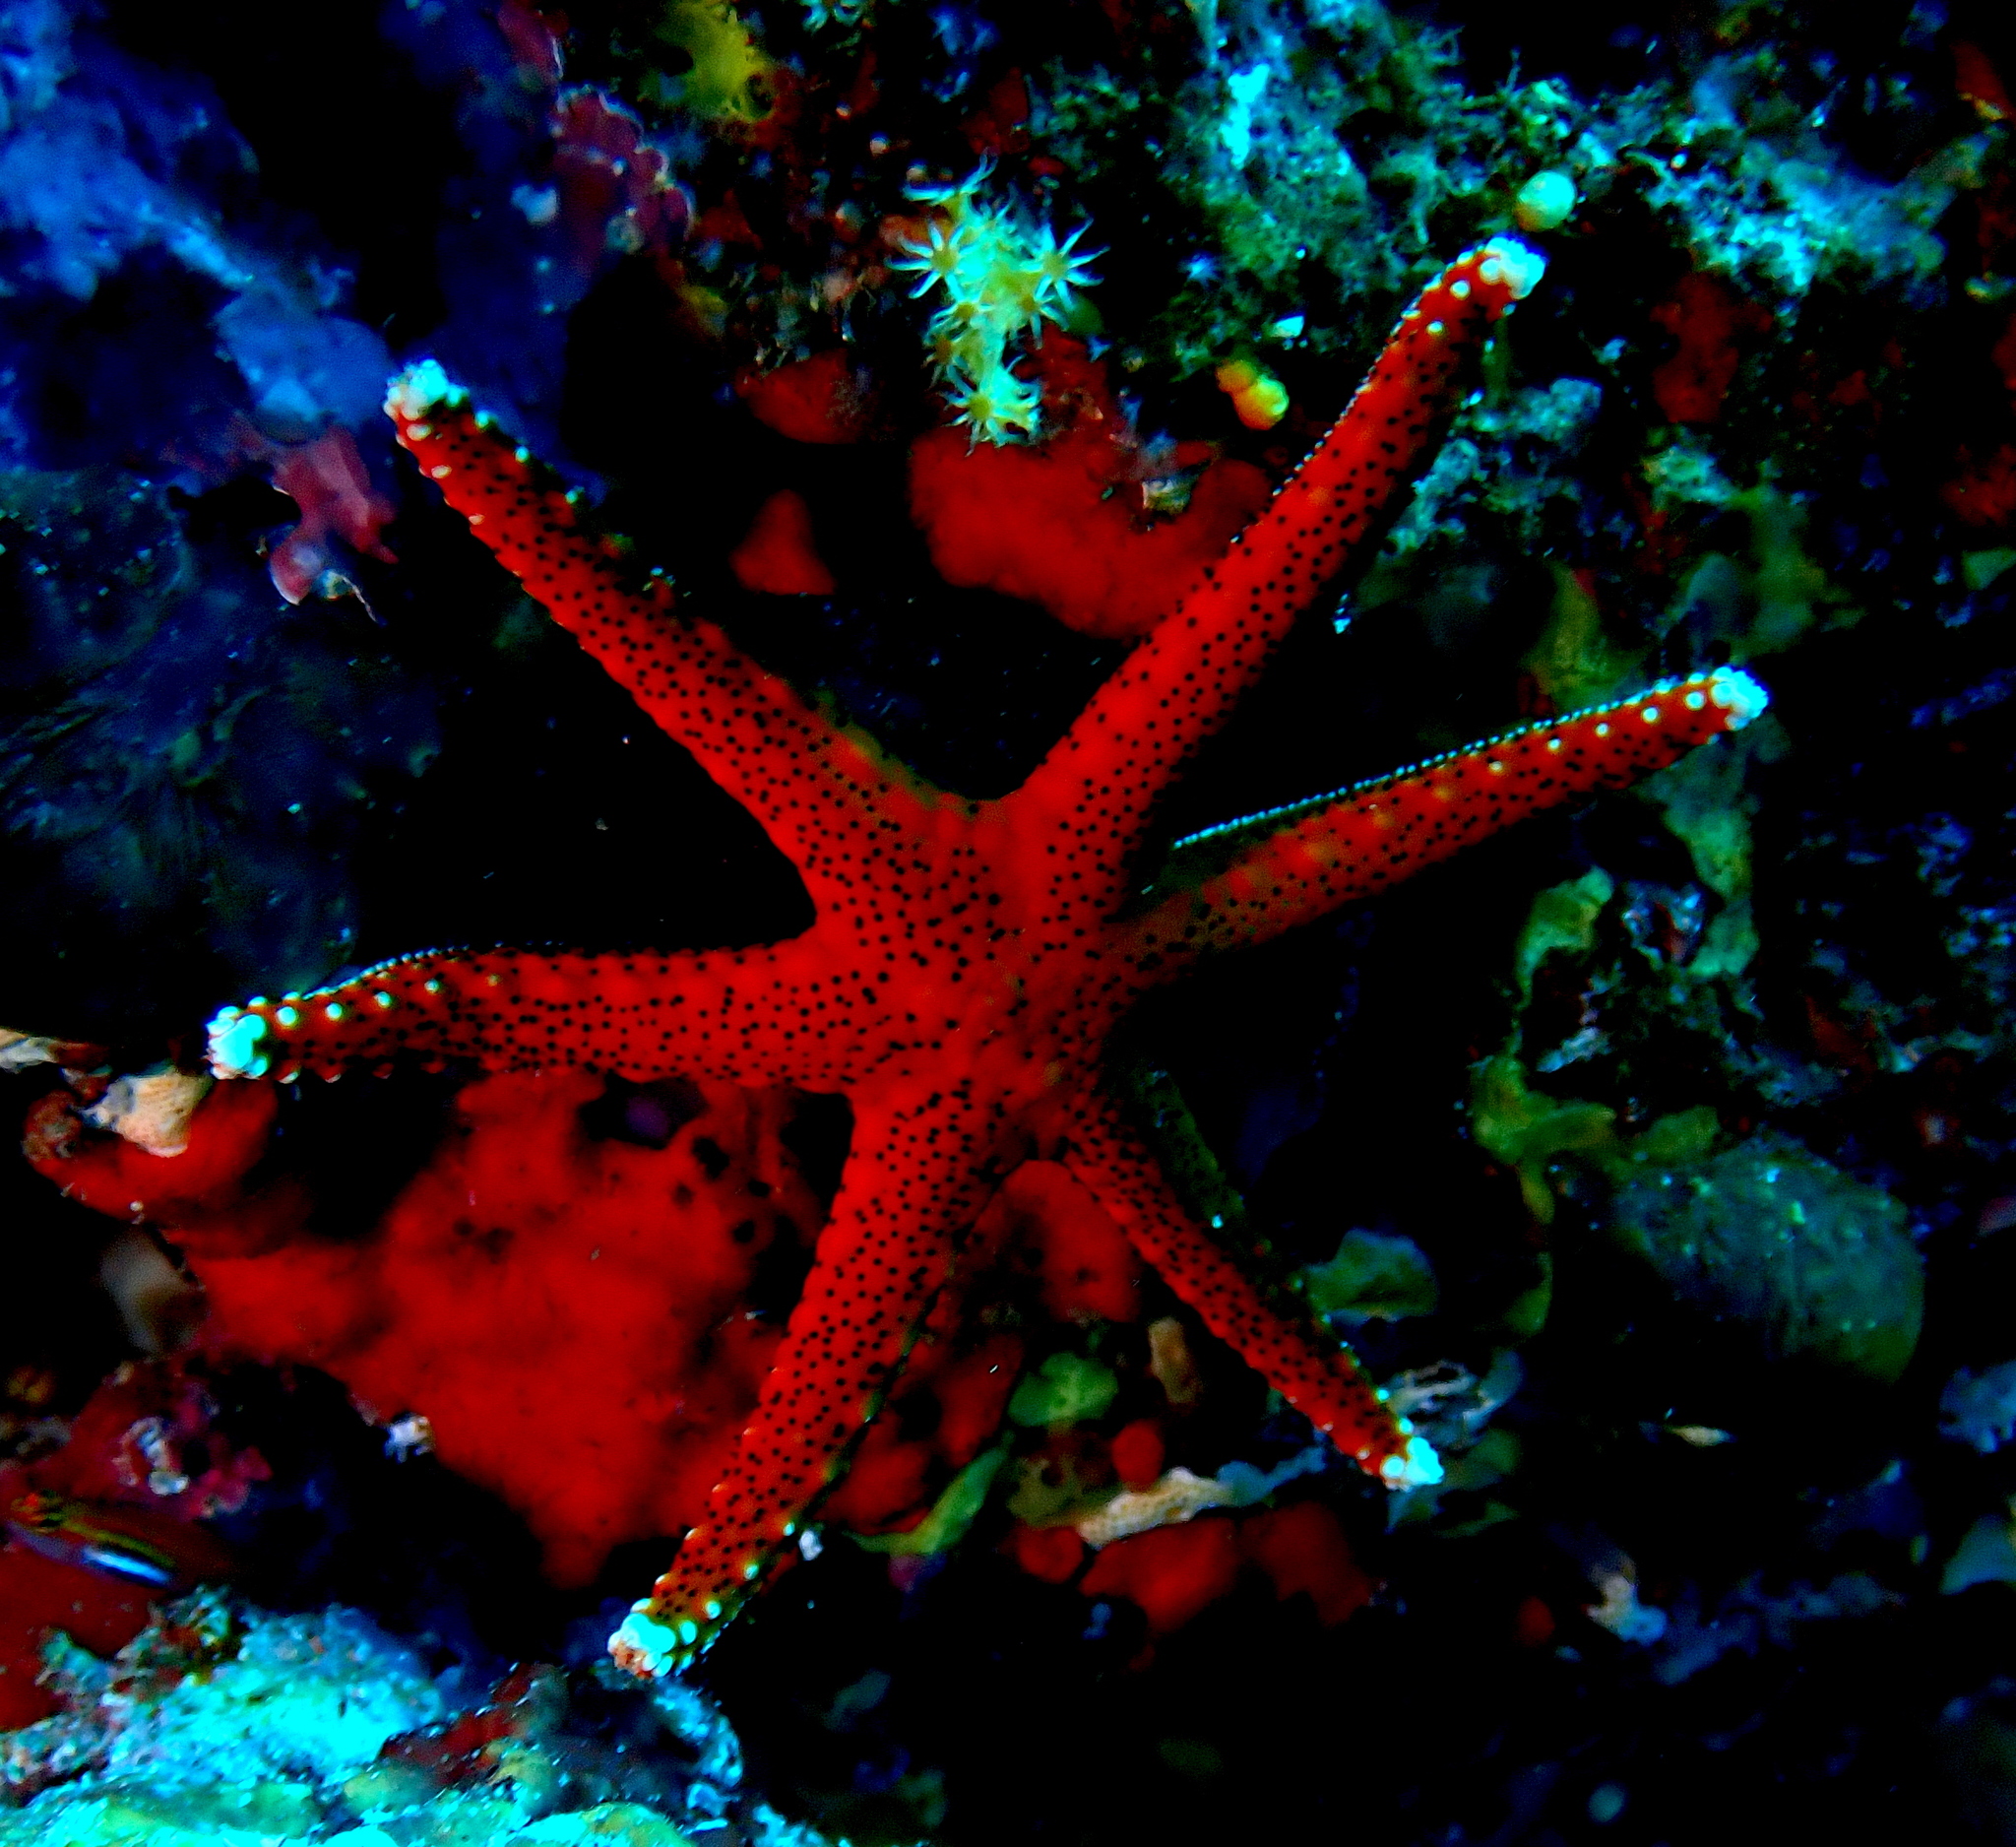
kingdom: Animalia
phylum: Echinodermata
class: Asteroidea
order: Valvatida
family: Goniasteridae
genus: Fromia
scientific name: Fromia milleporella
